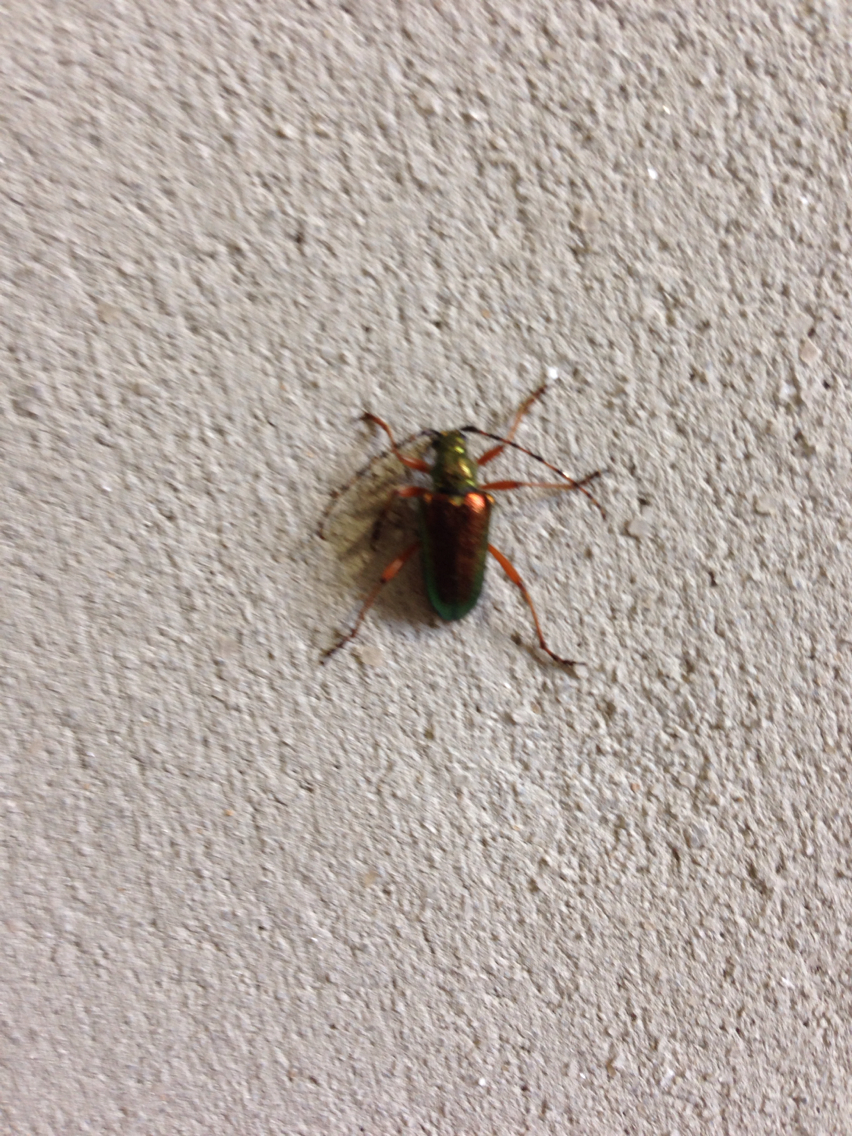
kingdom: Animalia
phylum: Arthropoda
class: Insecta
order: Coleoptera
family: Cerambycidae
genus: Anthophylax
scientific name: Anthophylax cyaneus
